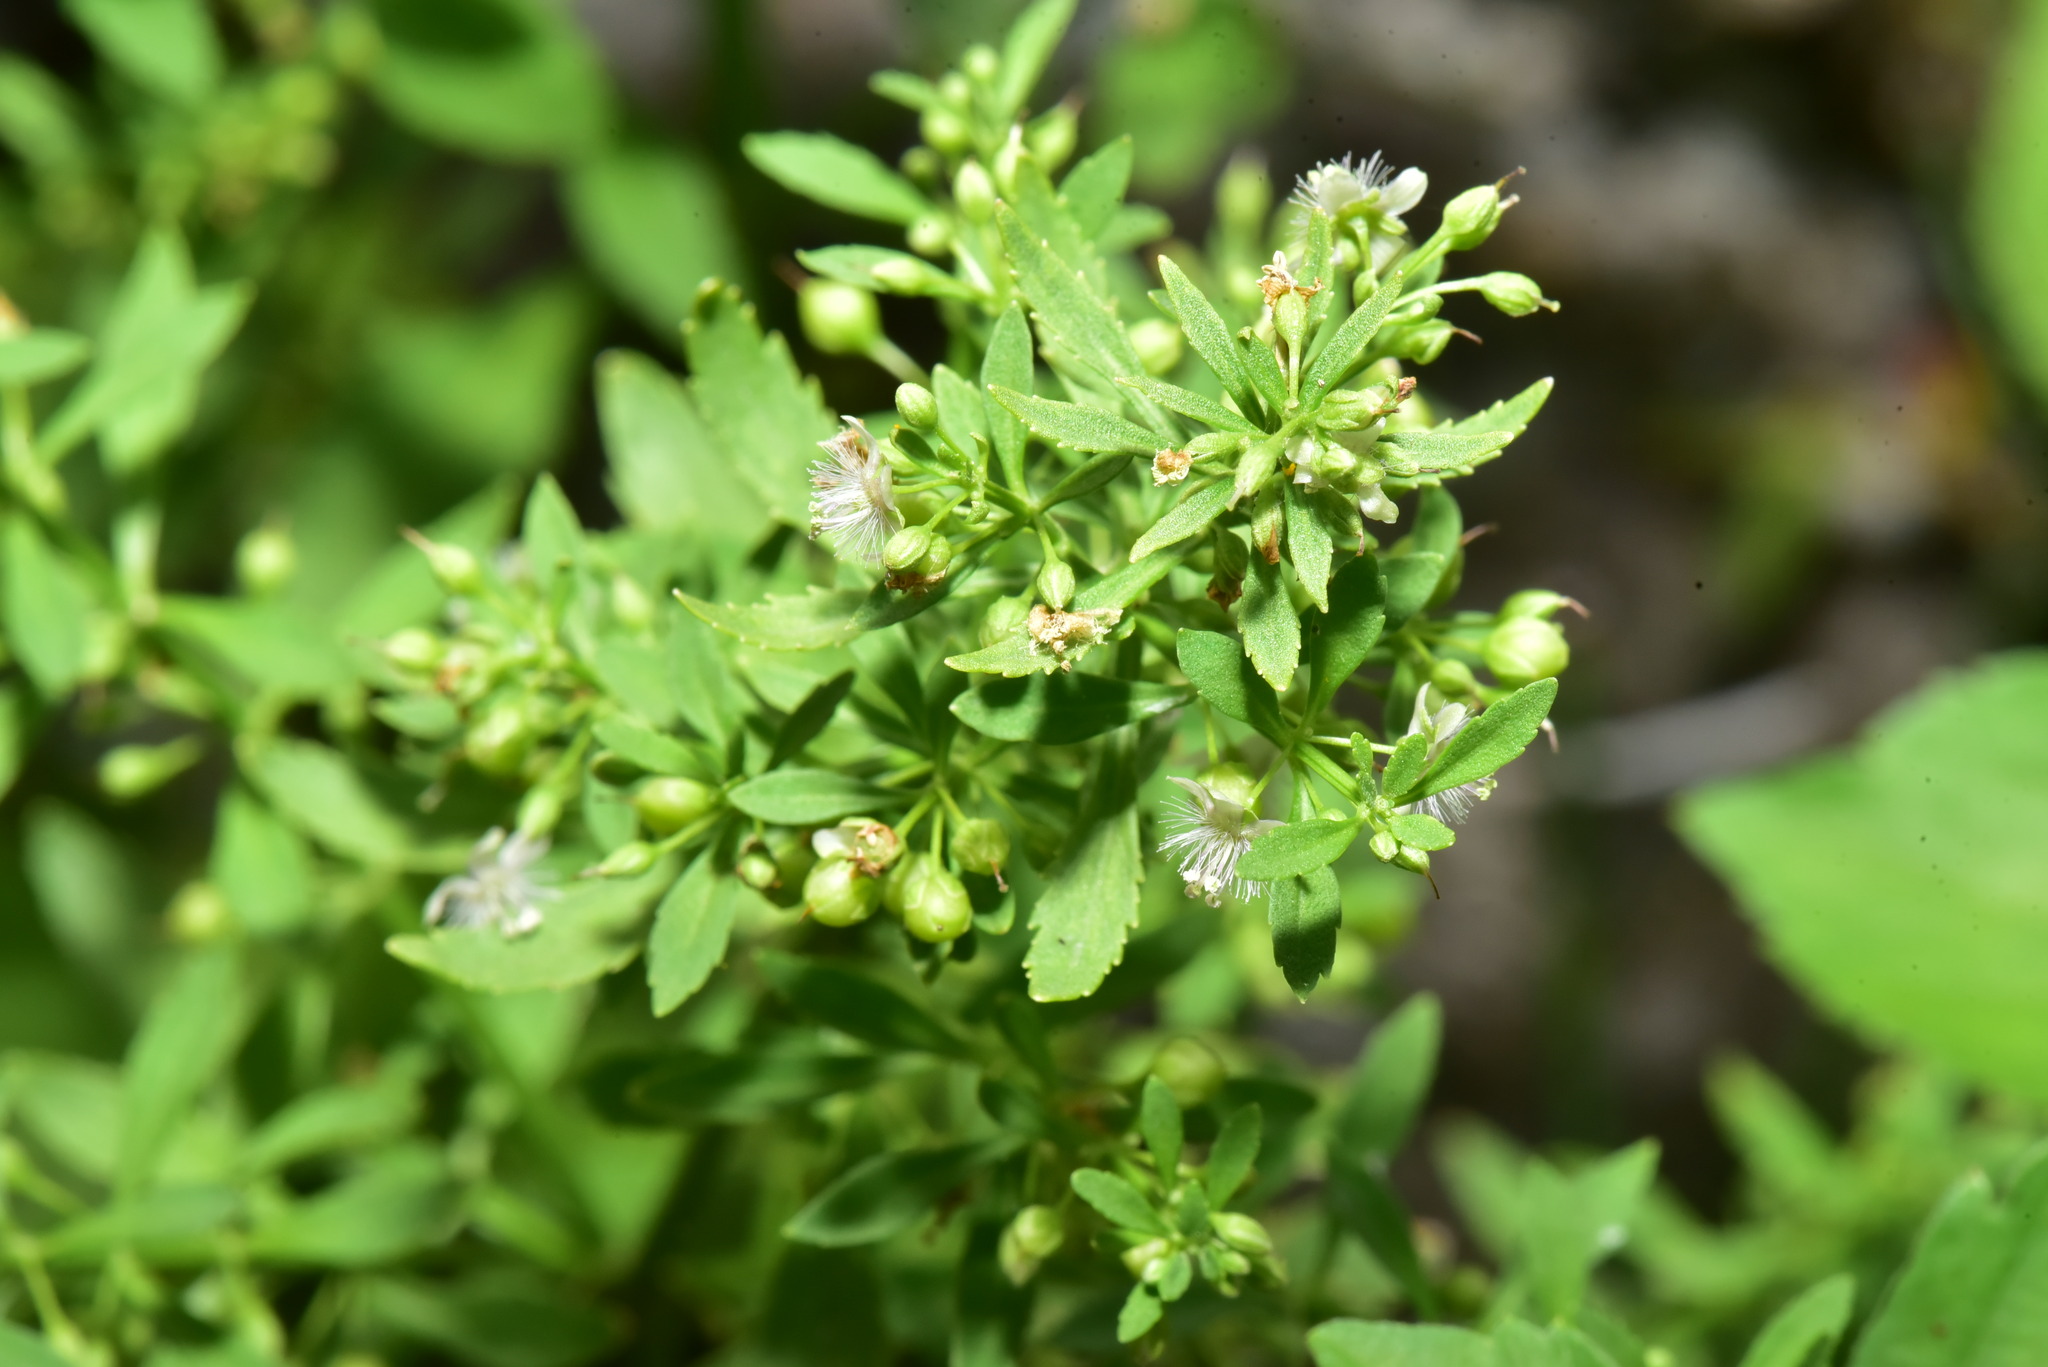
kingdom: Plantae
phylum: Tracheophyta
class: Magnoliopsida
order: Lamiales
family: Plantaginaceae
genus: Scoparia
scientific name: Scoparia dulcis
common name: Scoparia-weed
